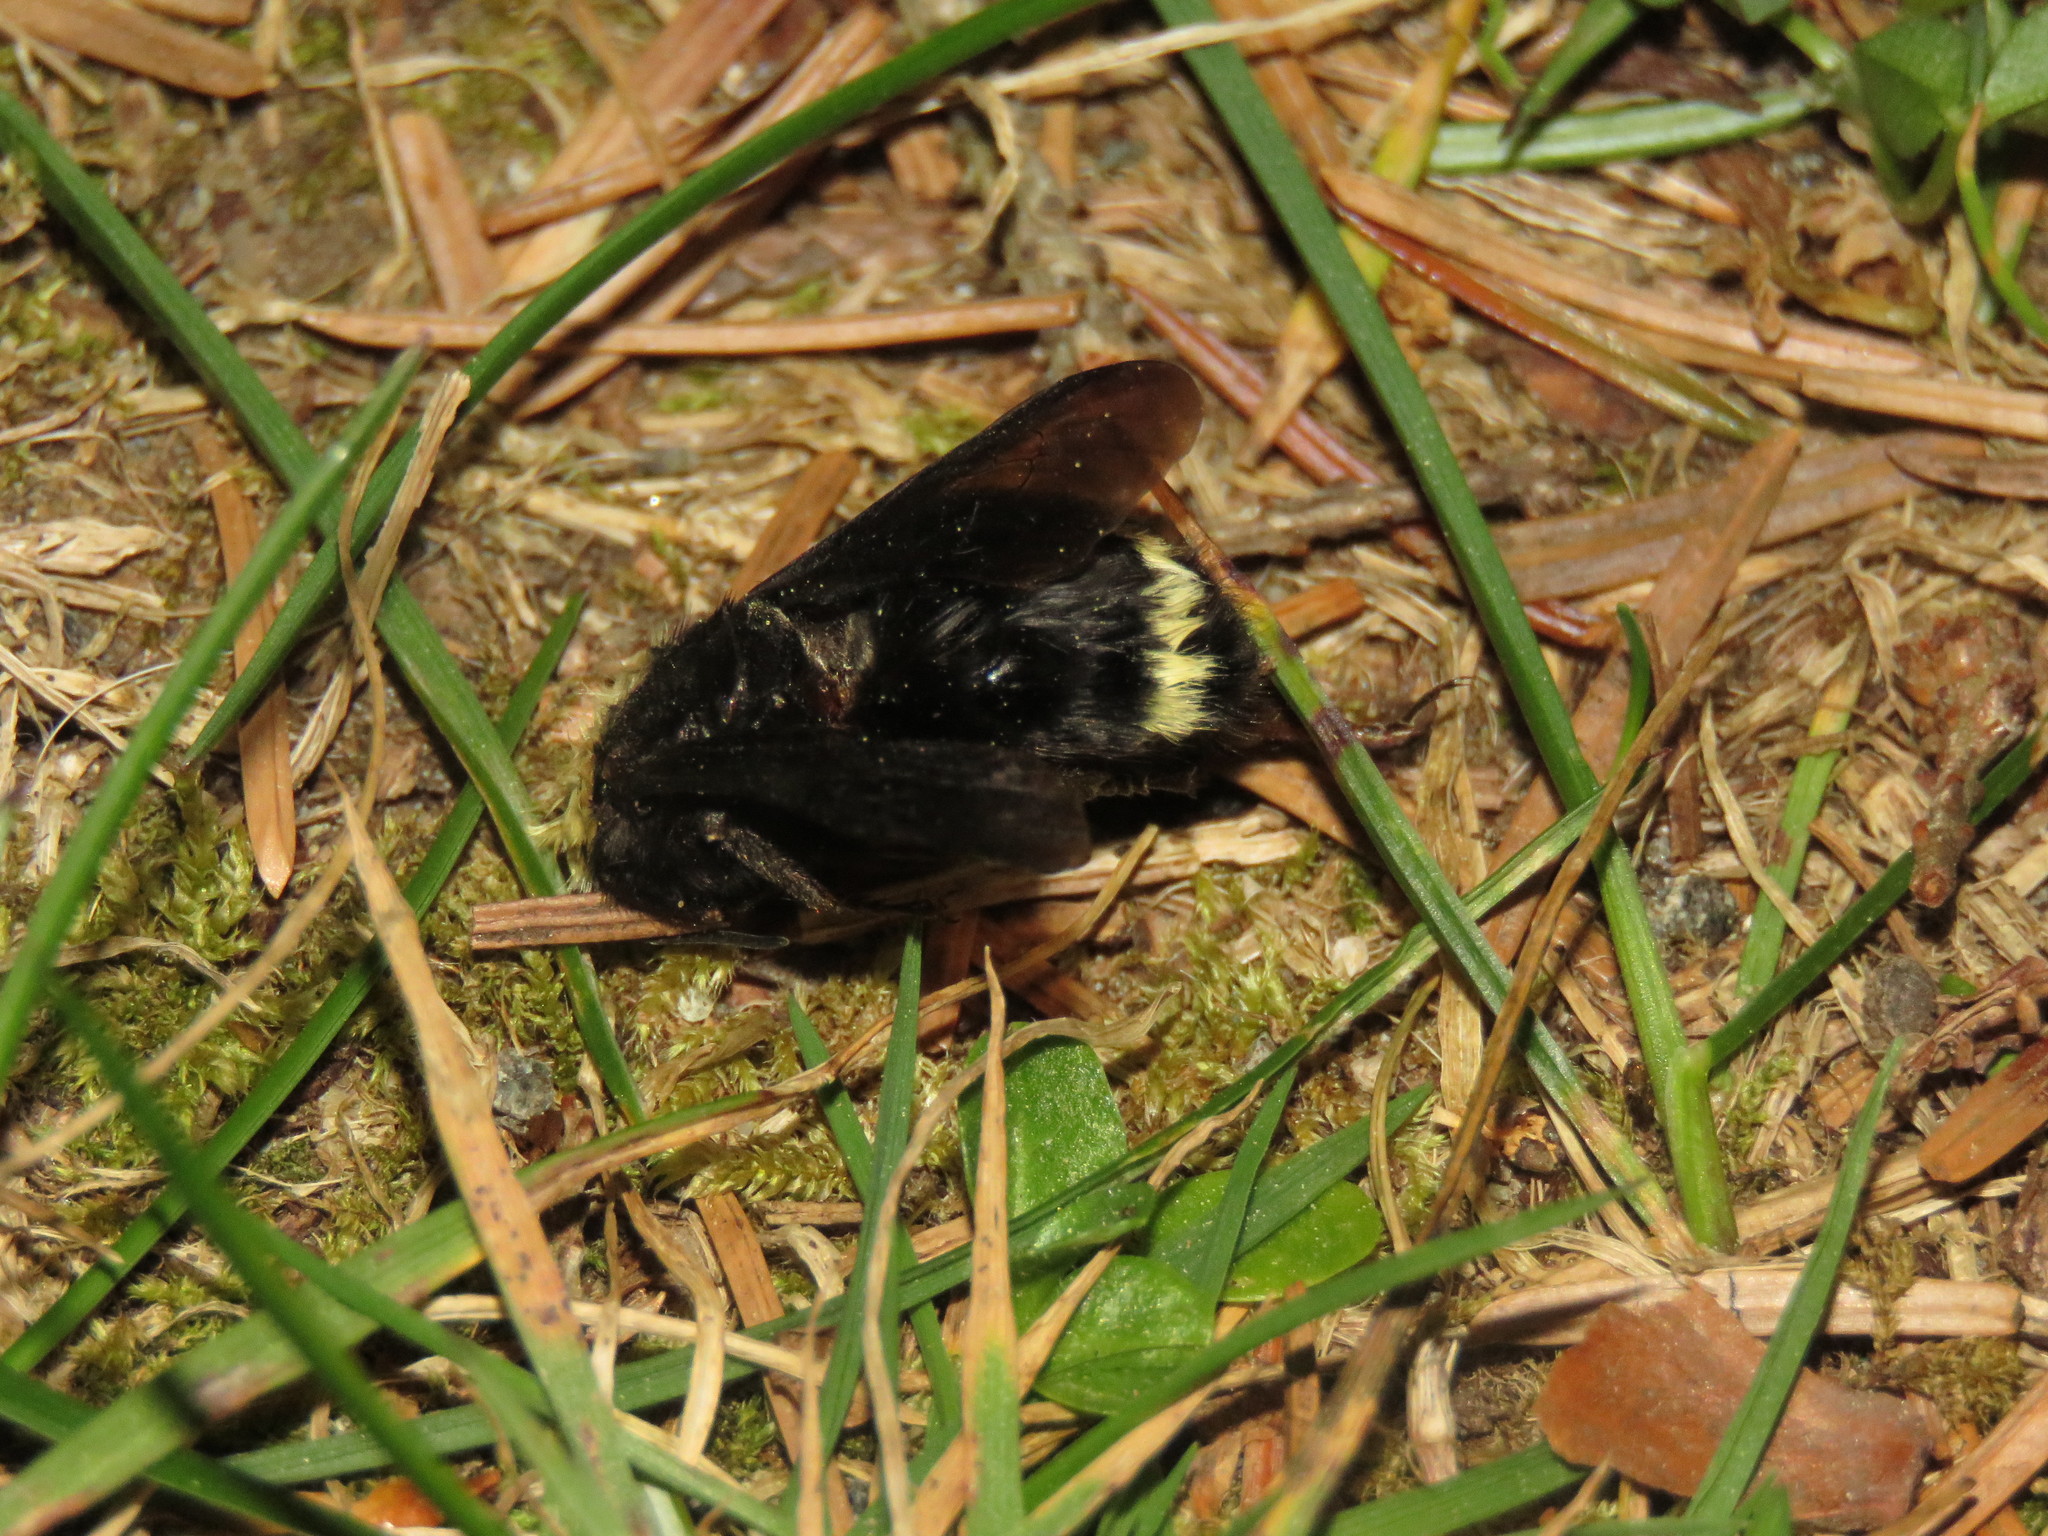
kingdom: Animalia
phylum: Arthropoda
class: Insecta
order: Hymenoptera
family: Apidae
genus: Bombus
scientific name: Bombus vosnesenskii
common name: Vosnesensky bumble bee
